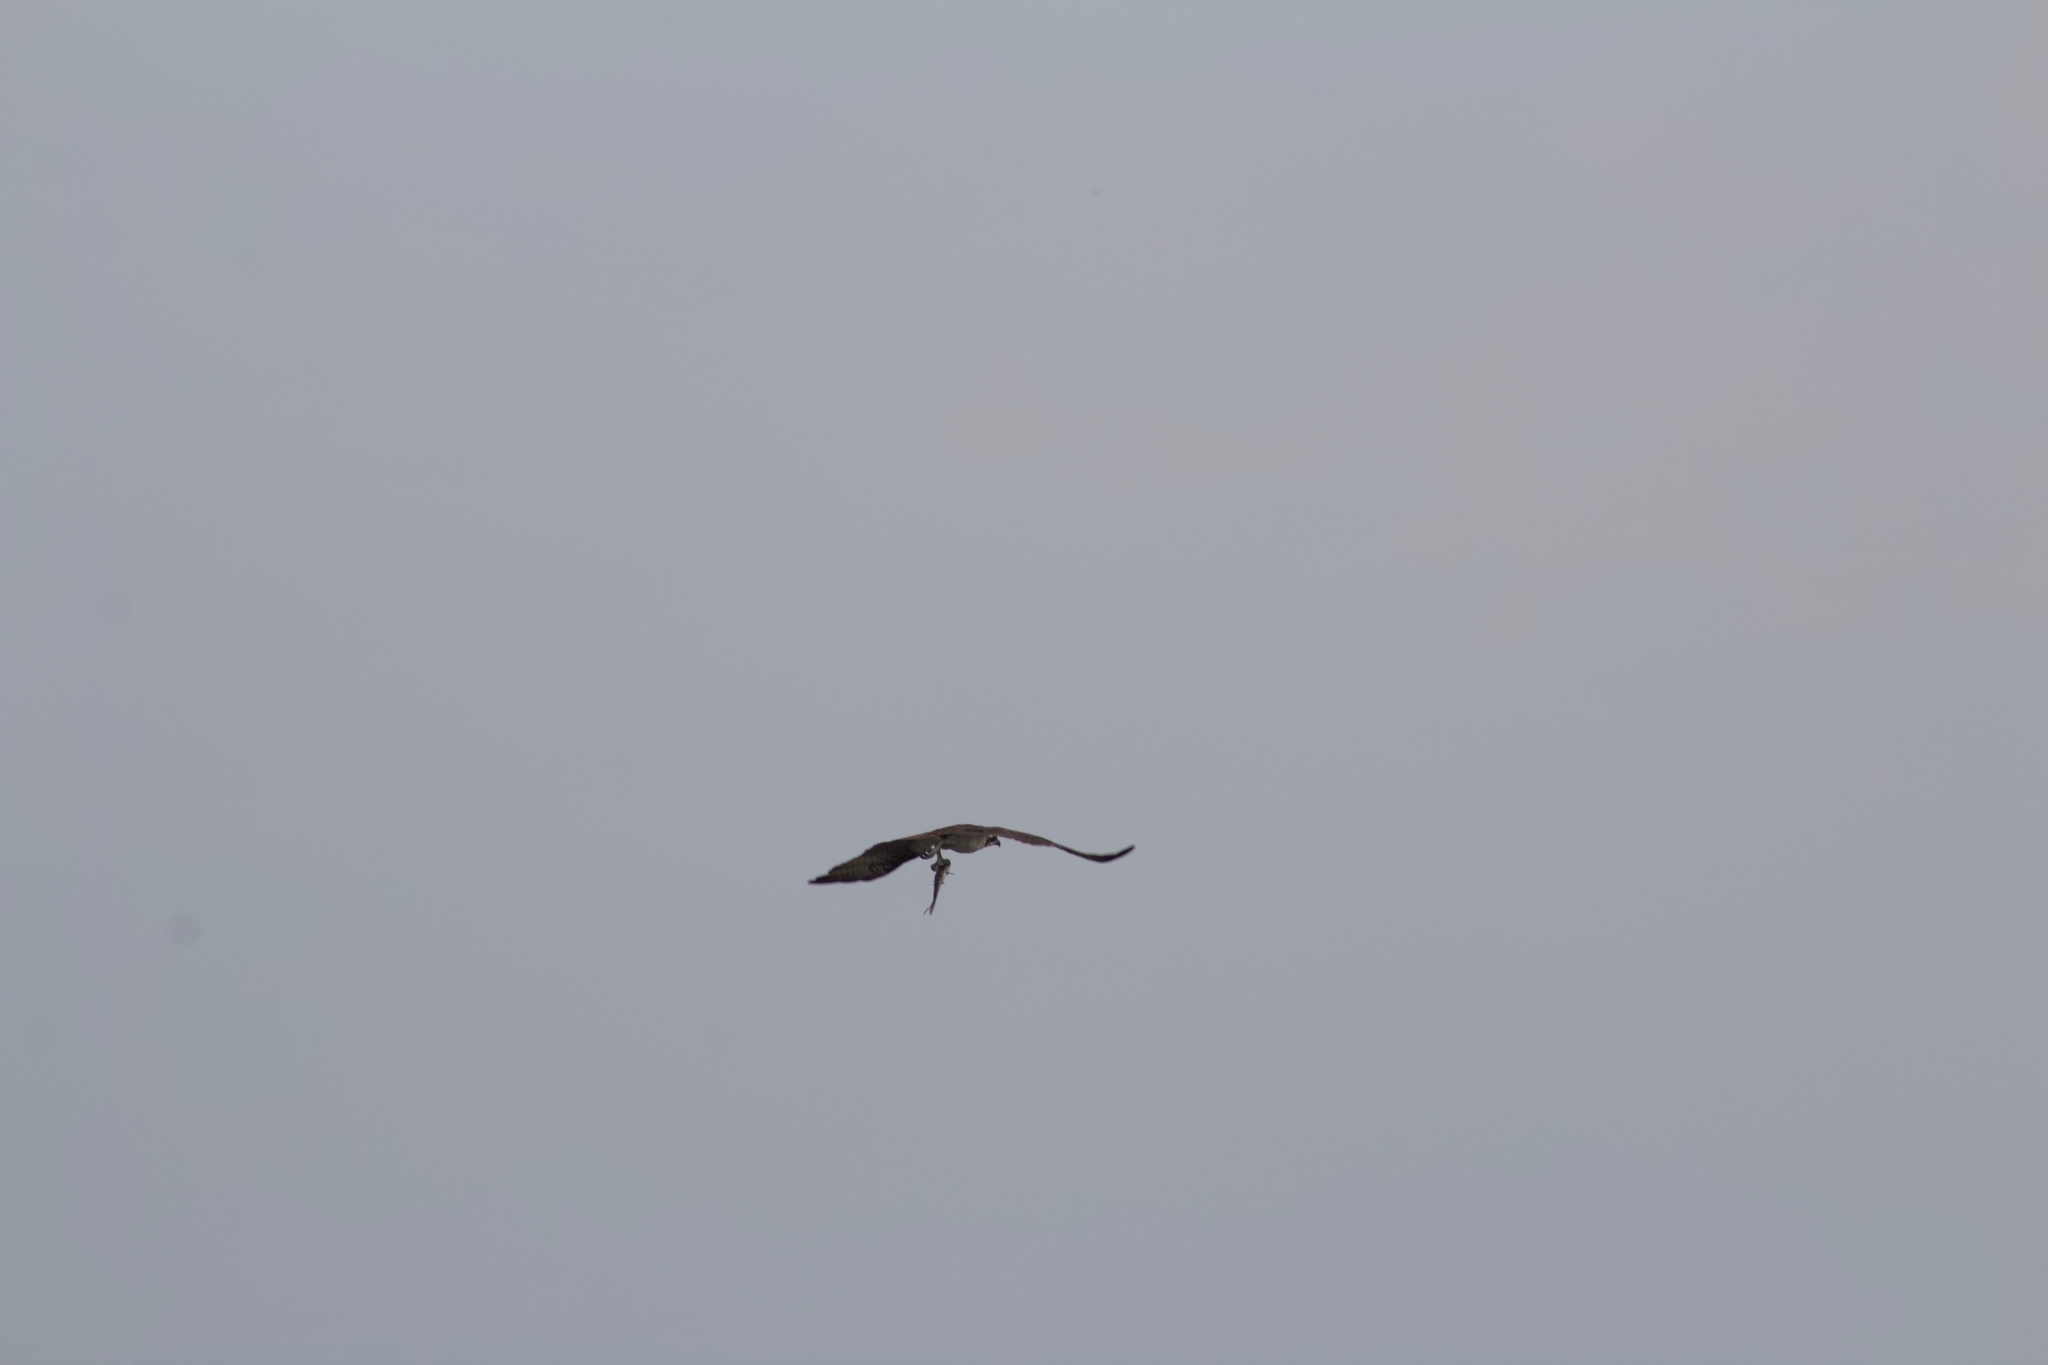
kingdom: Animalia
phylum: Chordata
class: Aves
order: Accipitriformes
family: Pandionidae
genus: Pandion
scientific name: Pandion haliaetus
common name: Osprey
